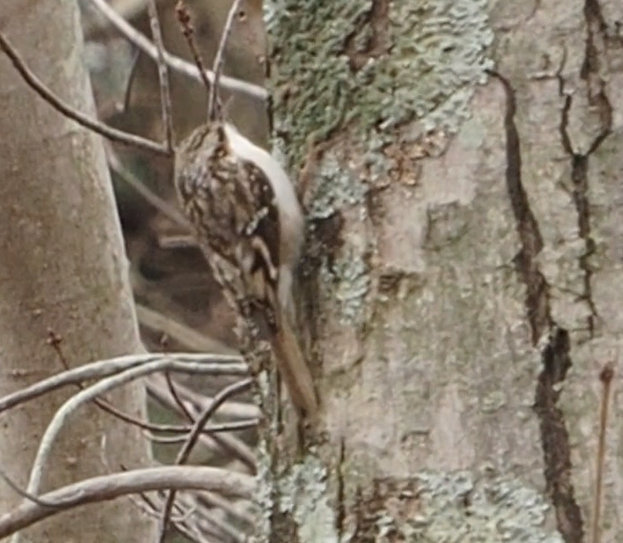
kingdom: Animalia
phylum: Chordata
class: Aves
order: Passeriformes
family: Certhiidae
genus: Certhia
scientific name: Certhia americana
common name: Brown creeper
